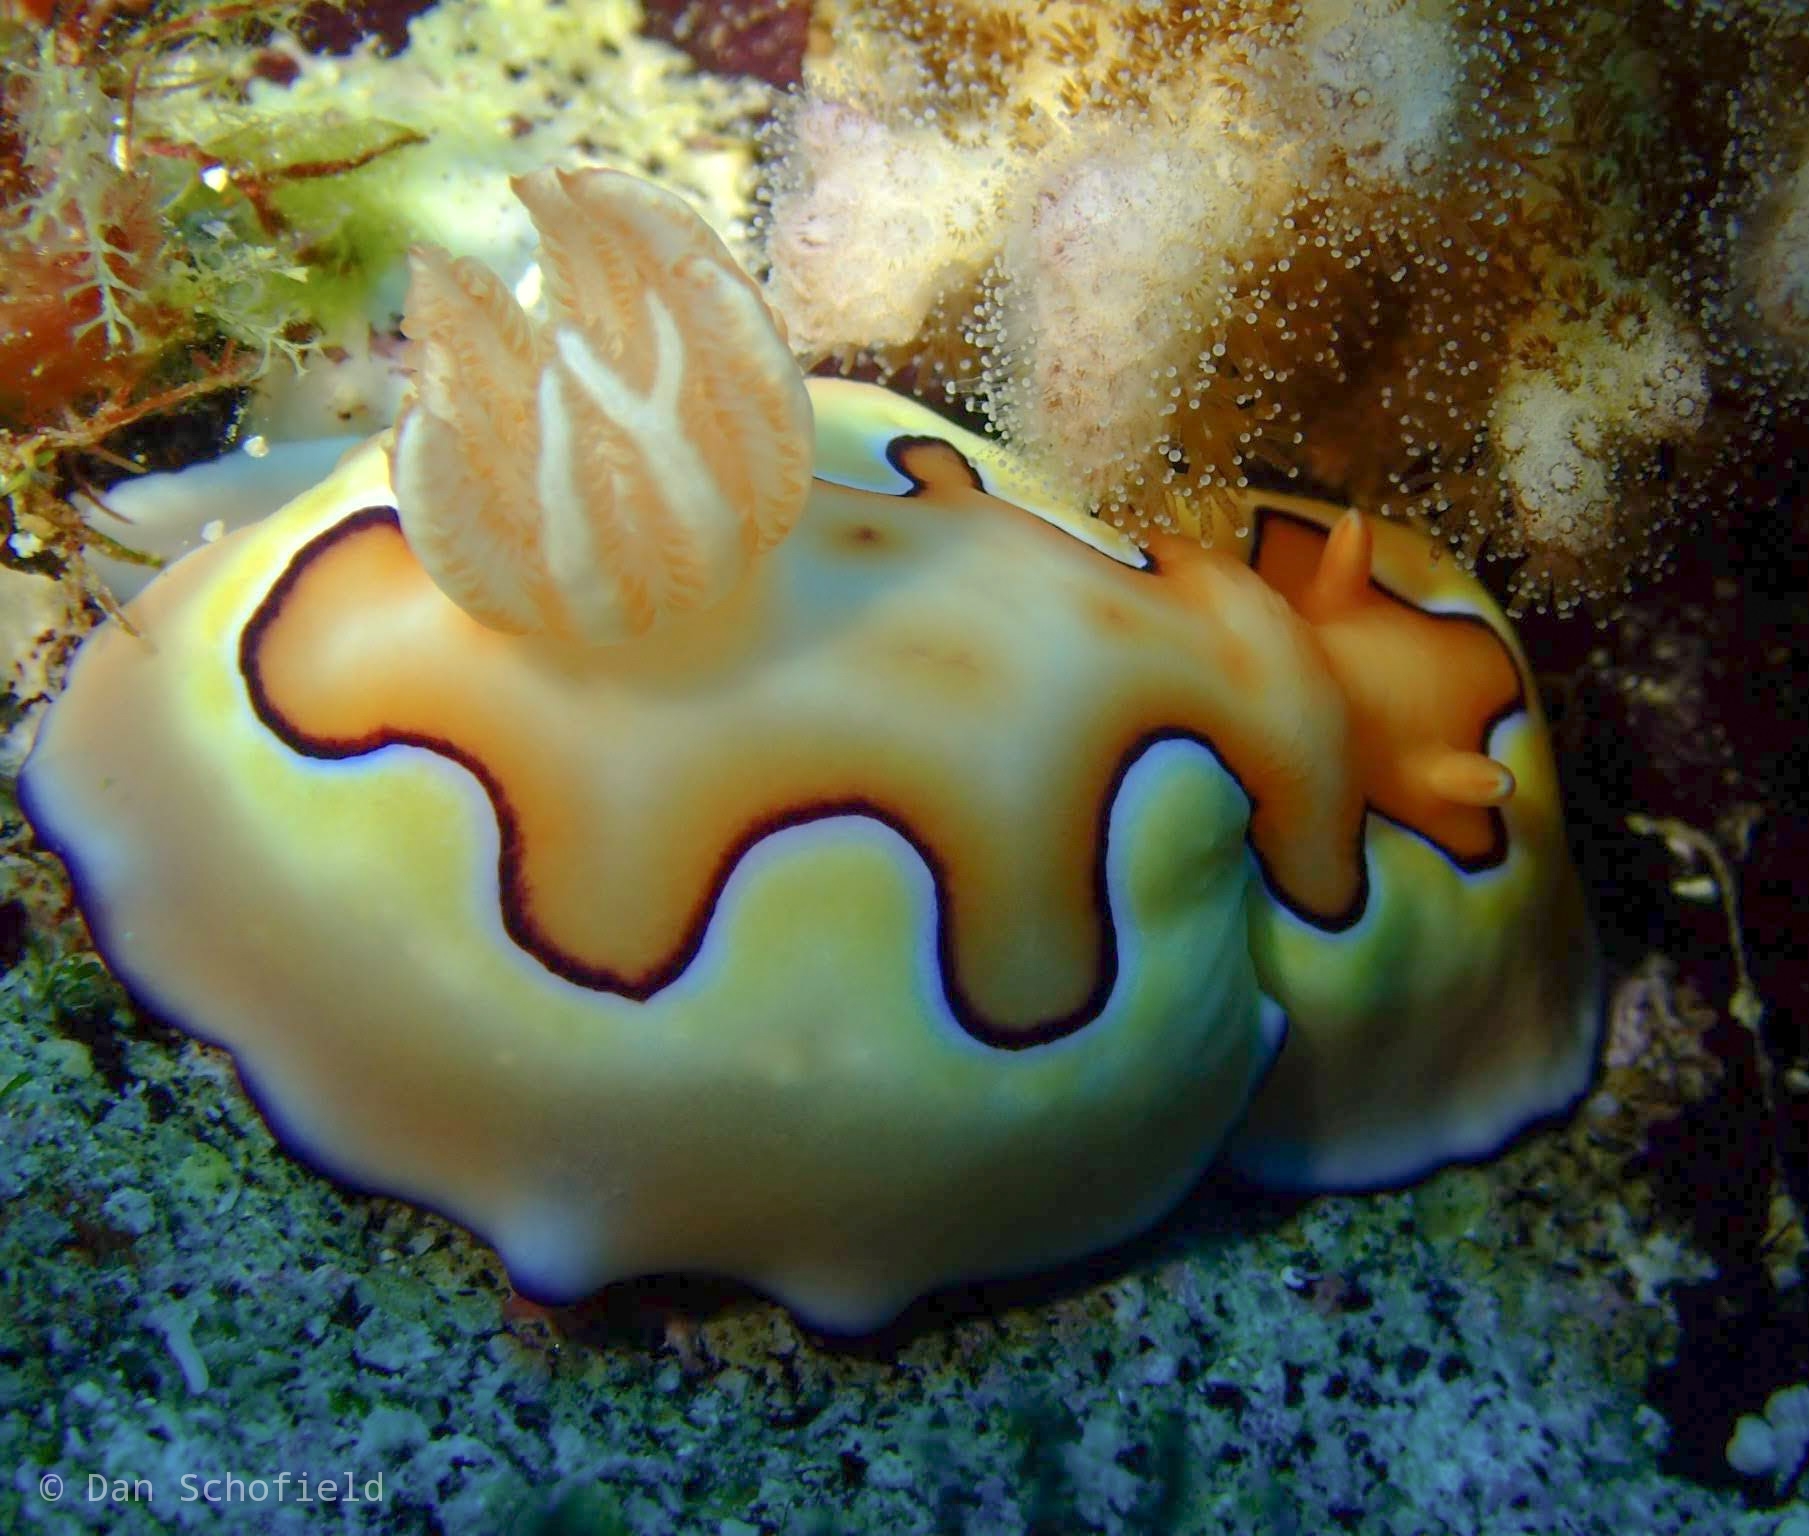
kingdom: Animalia
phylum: Mollusca
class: Gastropoda
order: Nudibranchia
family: Chromodorididae
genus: Goniobranchus
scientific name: Goniobranchus coi
